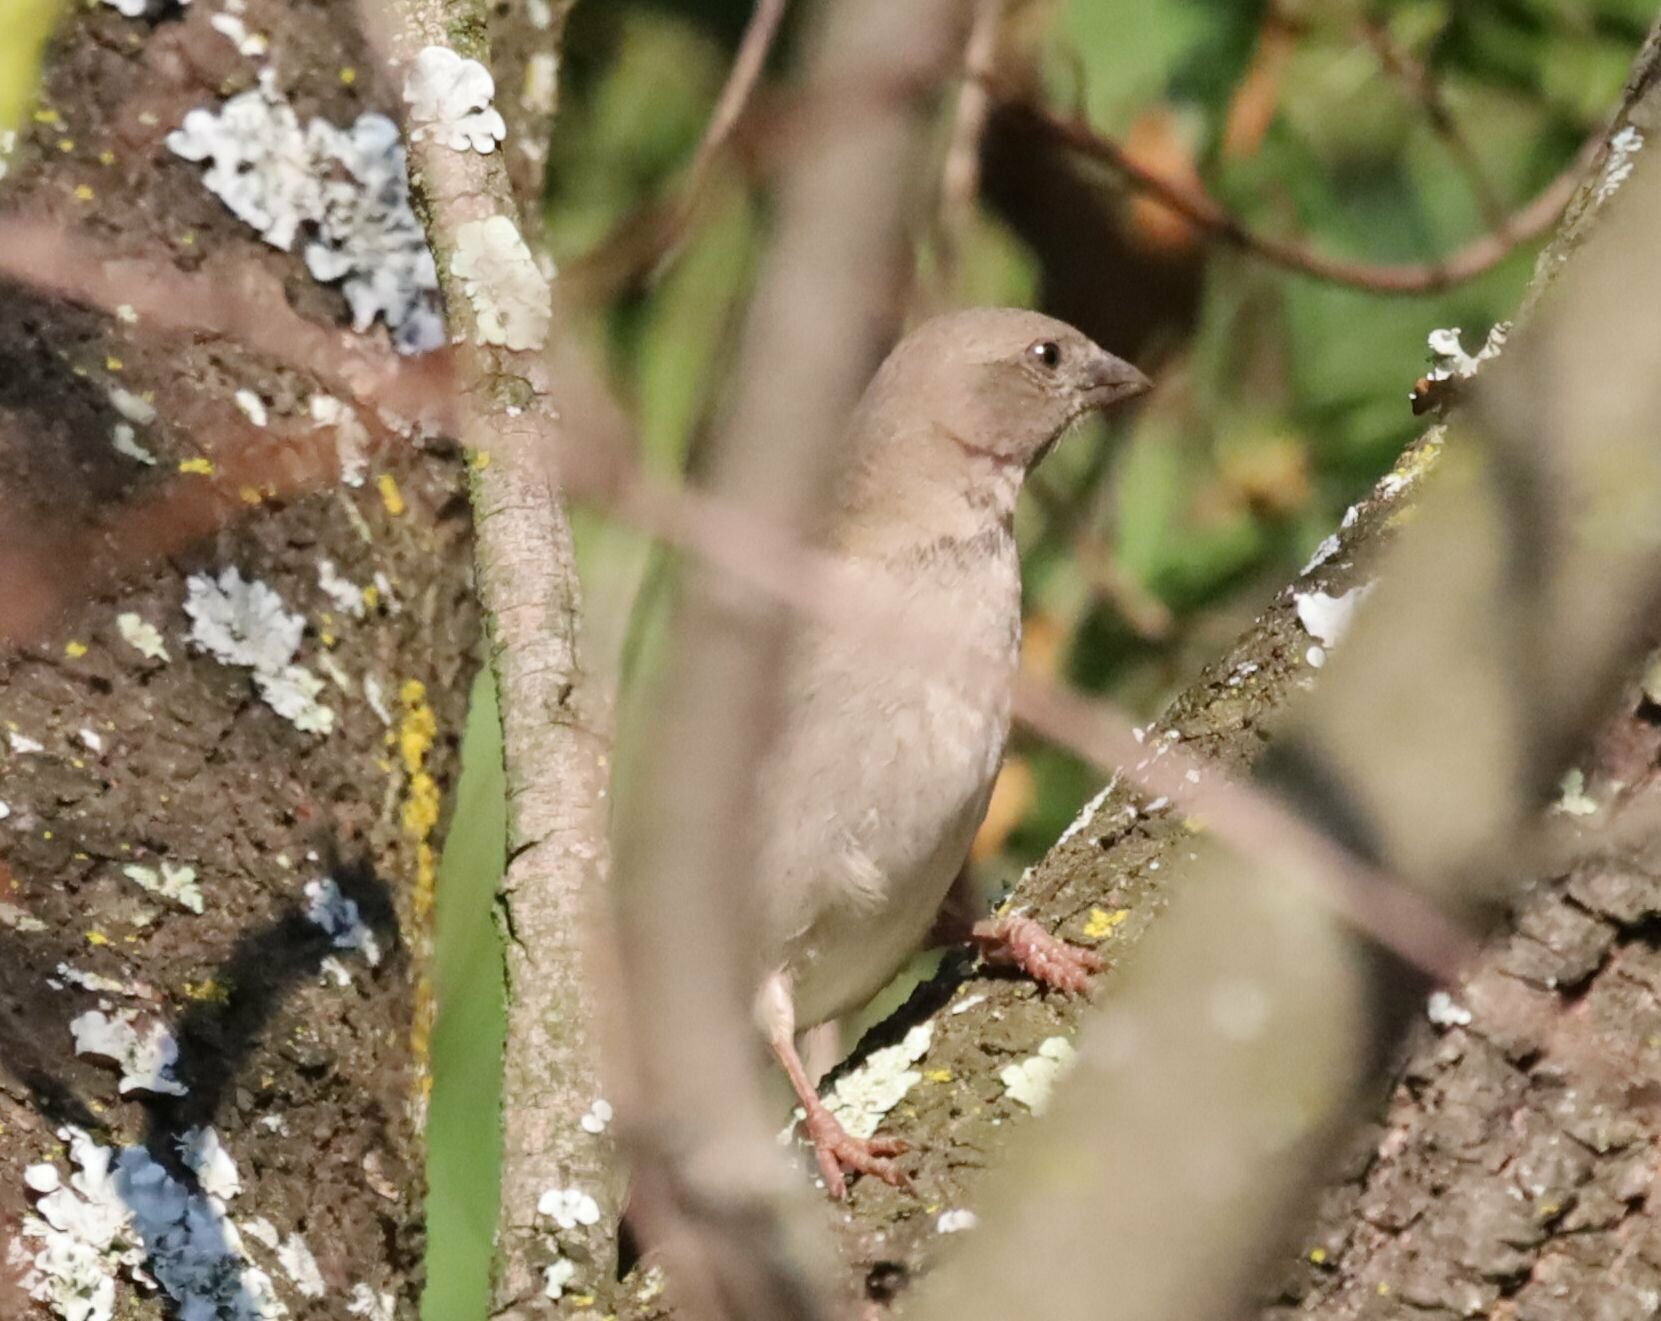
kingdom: Animalia
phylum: Chordata
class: Aves
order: Passeriformes
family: Passeridae
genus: Passer
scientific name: Passer diffusus
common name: Southern grey-headed sparrow
